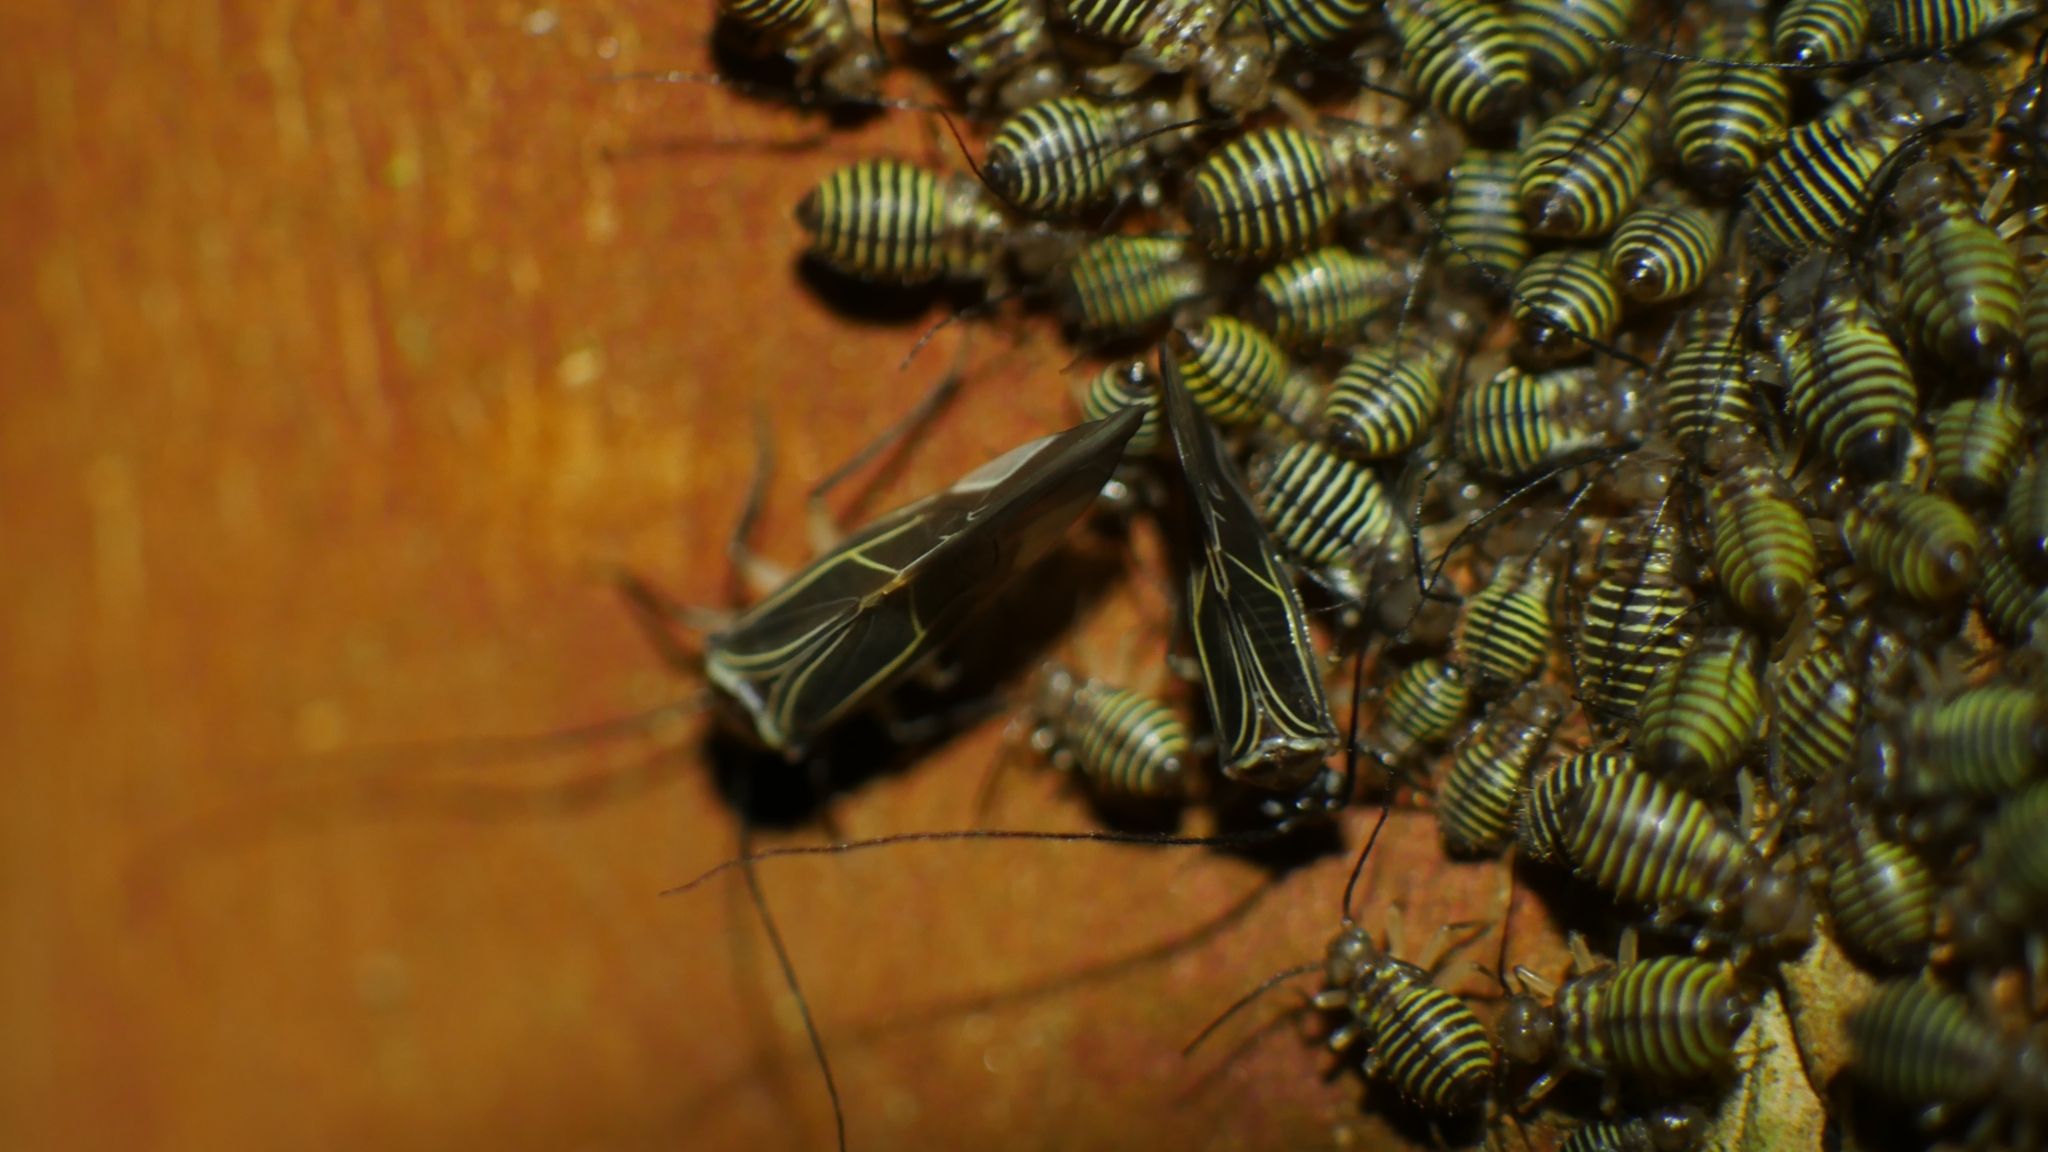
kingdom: Animalia
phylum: Arthropoda
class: Insecta
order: Psocodea
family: Psocidae
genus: Cerastipsocus
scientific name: Cerastipsocus venosus
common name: Tree cattle
